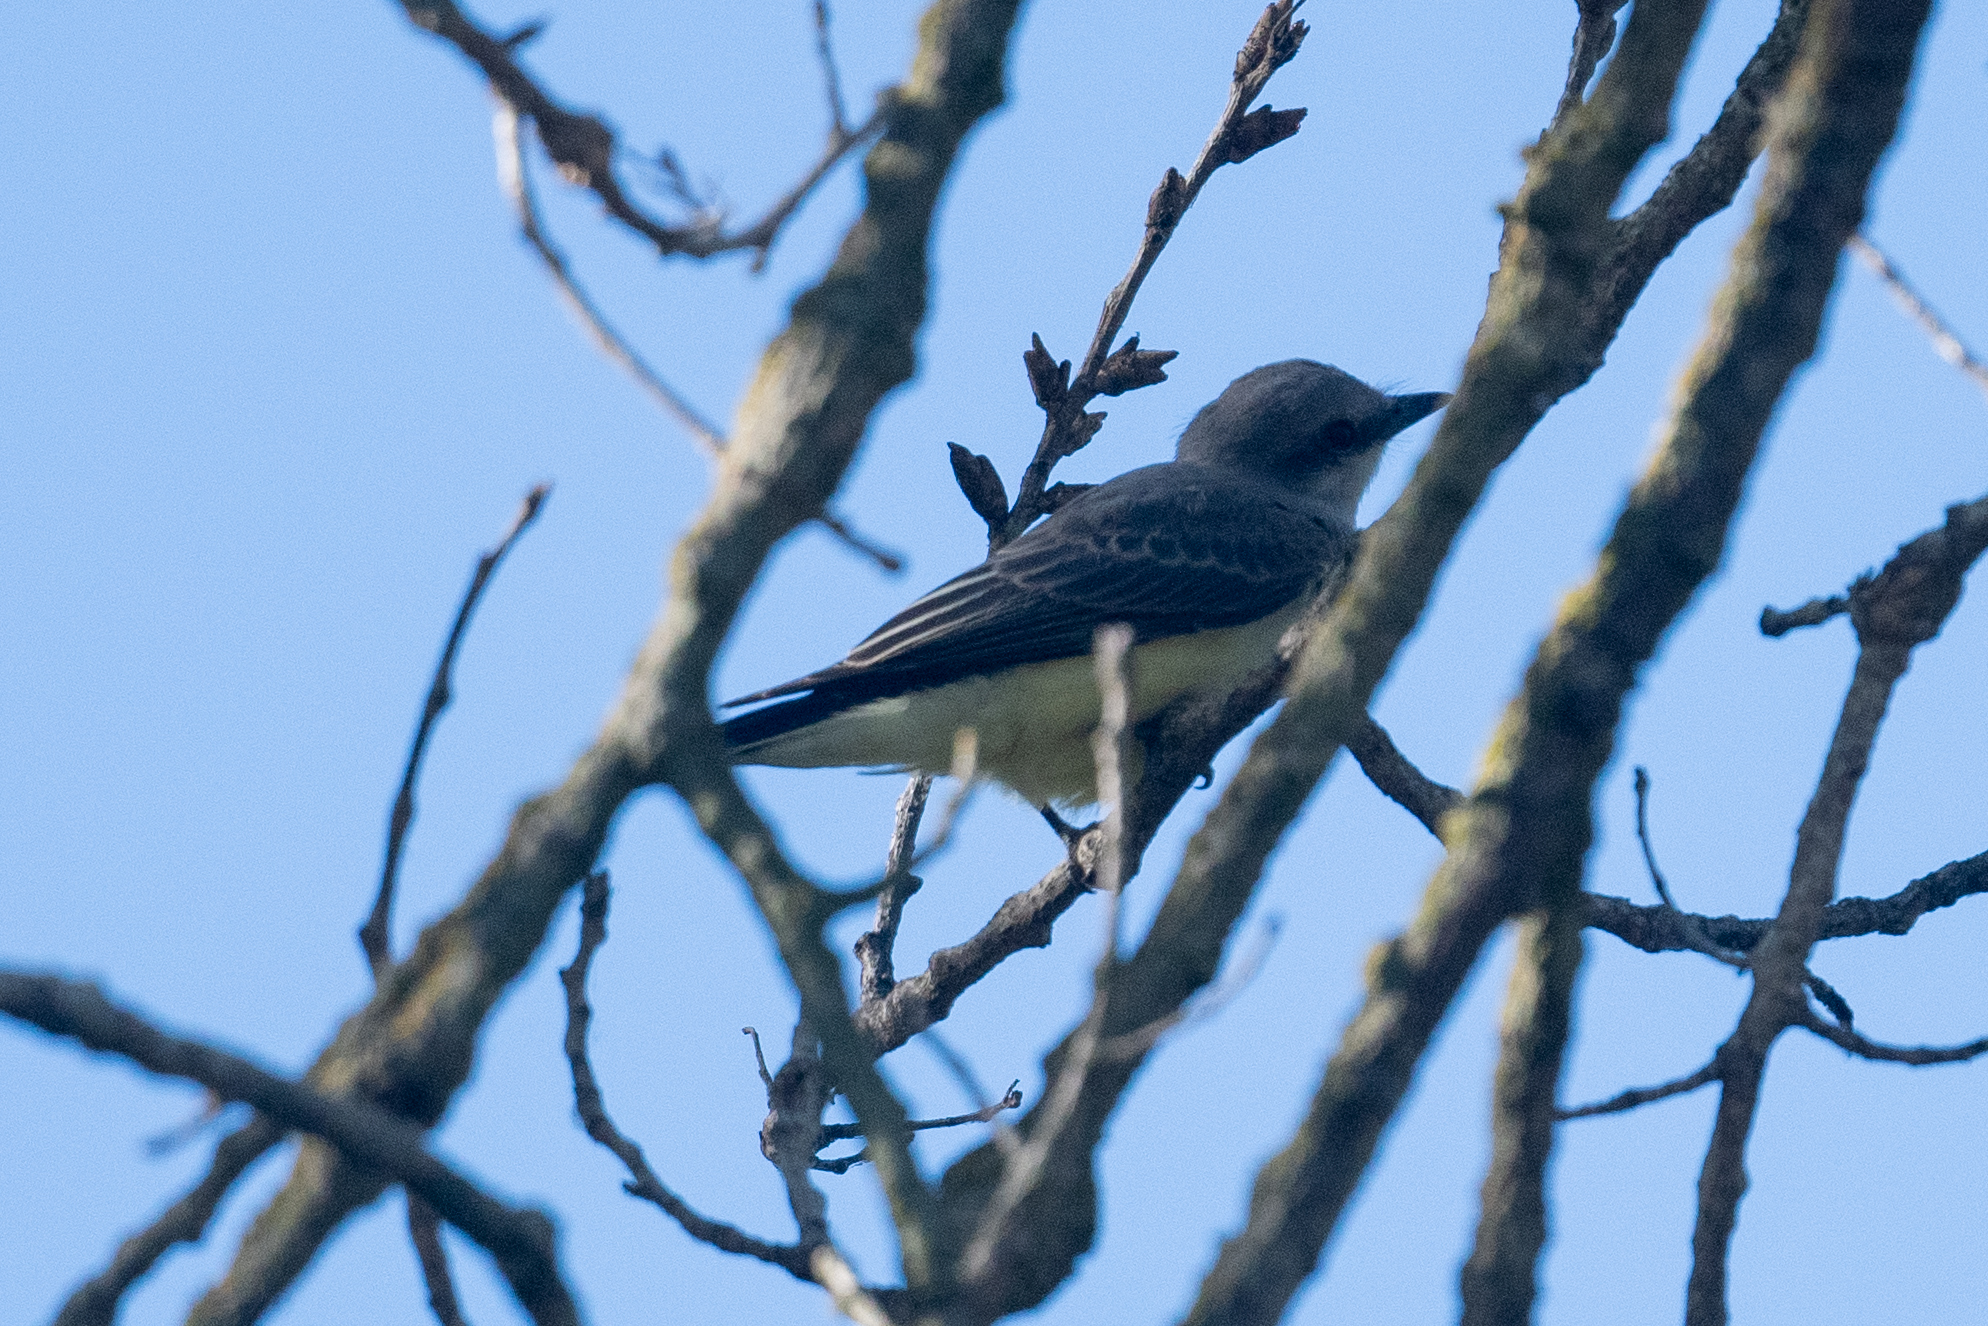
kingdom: Animalia
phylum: Chordata
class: Aves
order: Passeriformes
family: Tyrannidae
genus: Tyrannus
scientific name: Tyrannus verticalis
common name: Western kingbird
